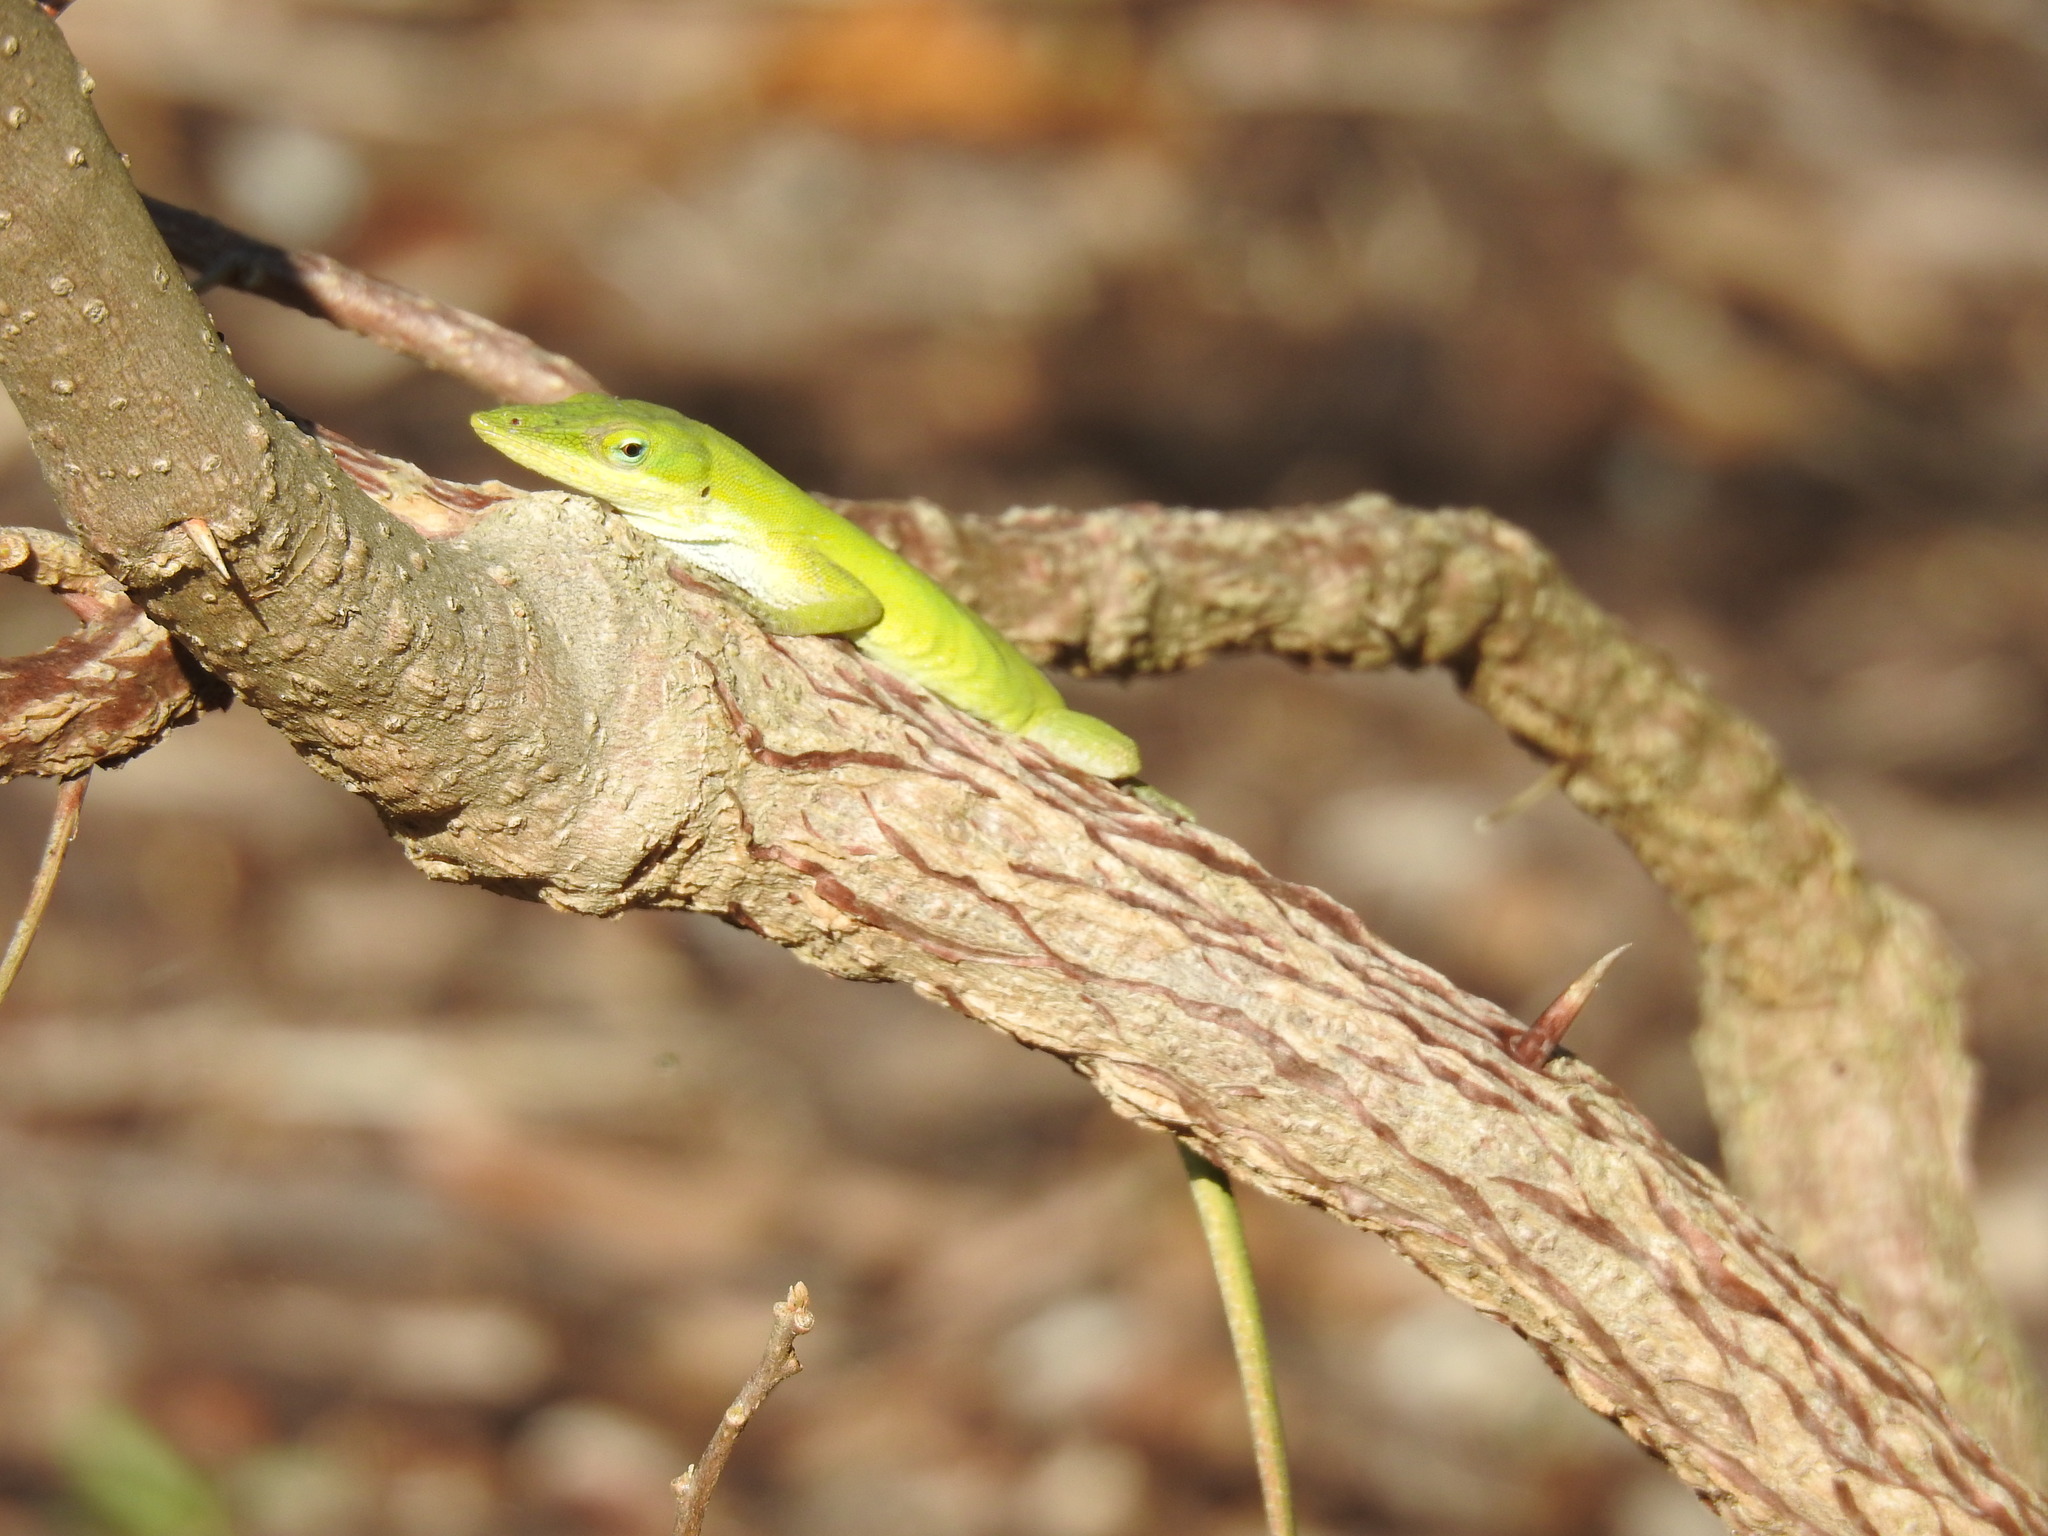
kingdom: Animalia
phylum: Chordata
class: Squamata
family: Dactyloidae
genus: Anolis
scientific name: Anolis carolinensis
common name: Green anole
